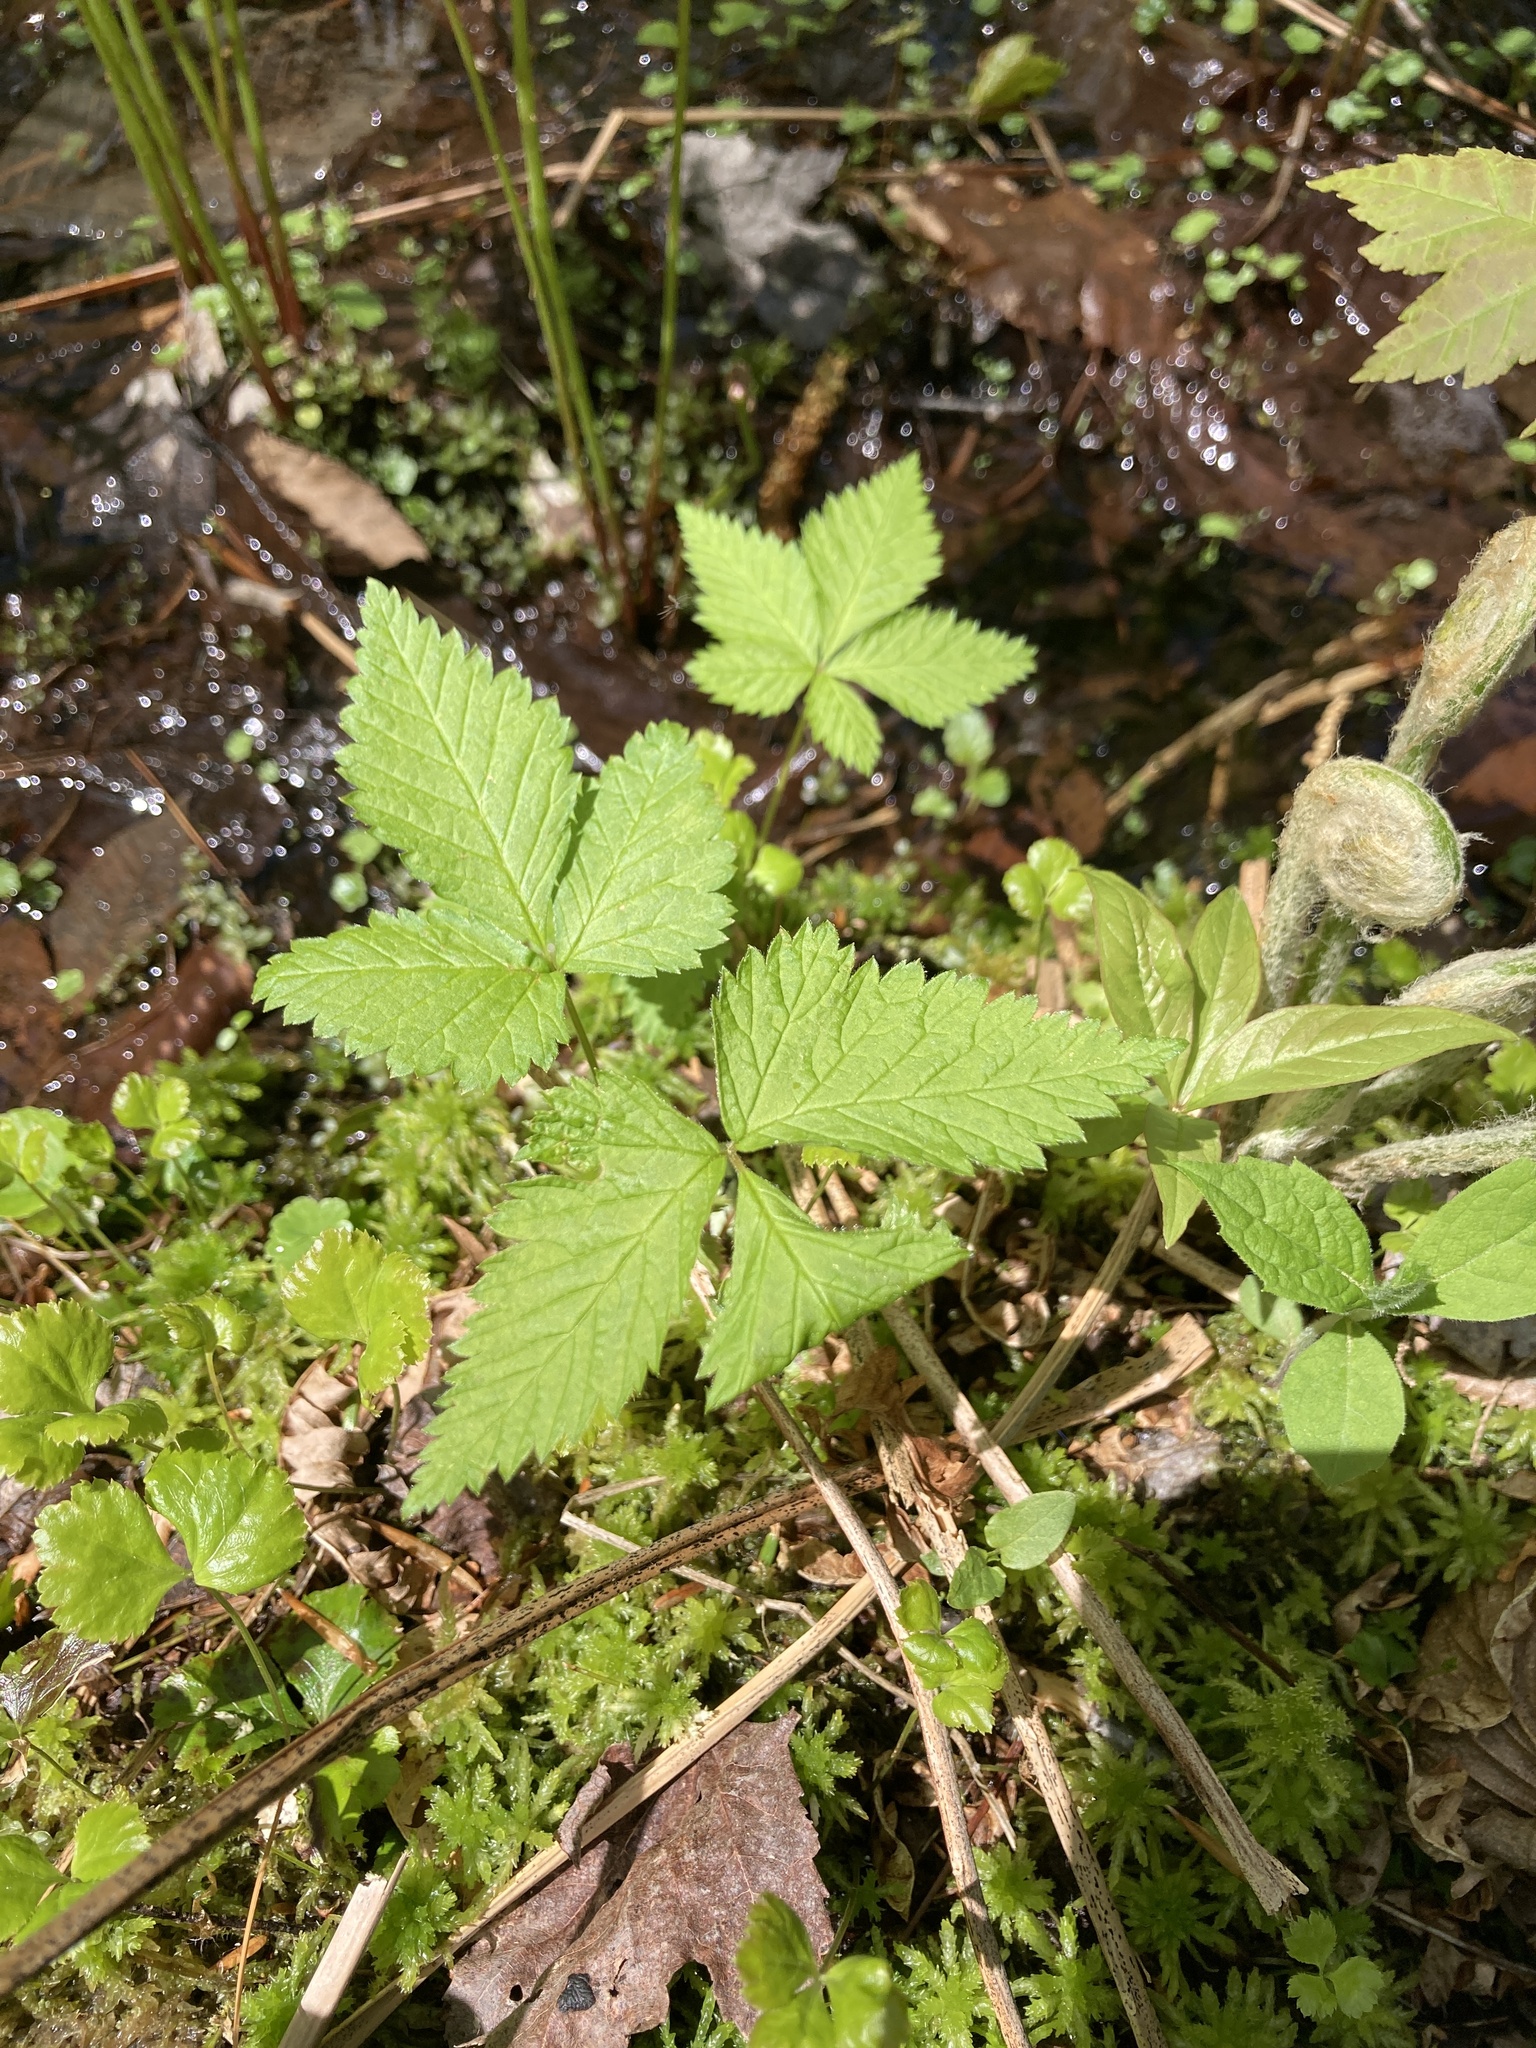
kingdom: Plantae
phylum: Tracheophyta
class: Magnoliopsida
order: Rosales
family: Rosaceae
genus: Rubus
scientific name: Rubus pubescens
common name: Dwarf raspberry
